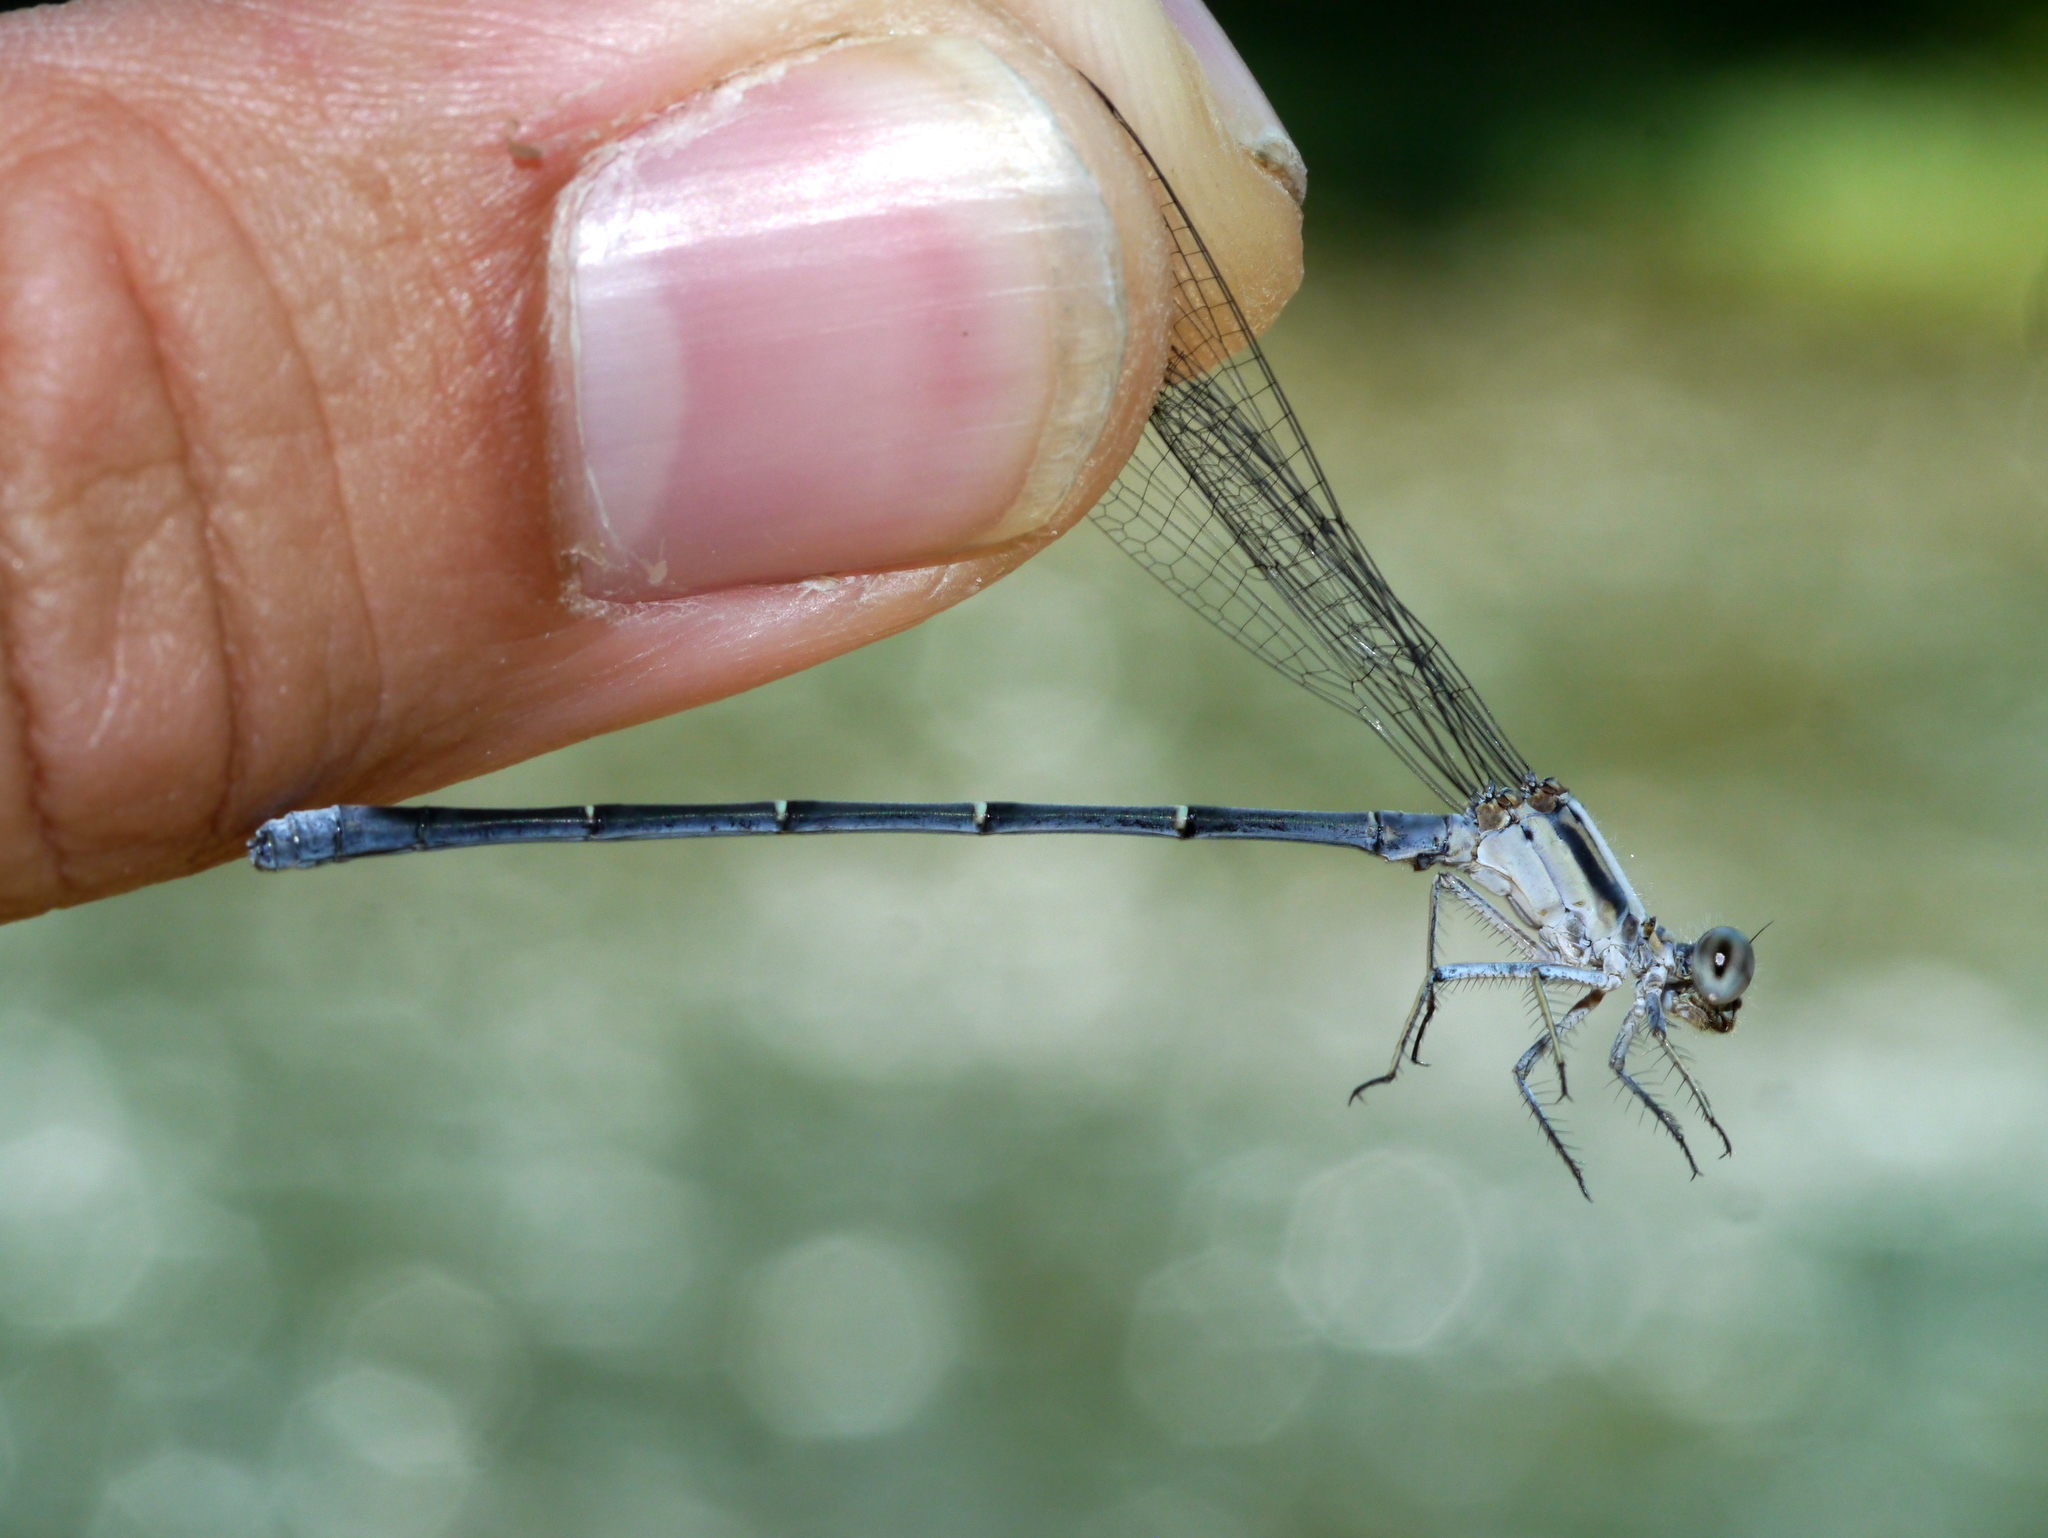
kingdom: Animalia
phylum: Arthropoda
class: Insecta
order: Odonata
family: Coenagrionidae
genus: Argia
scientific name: Argia moesta
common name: Powdered dancer
